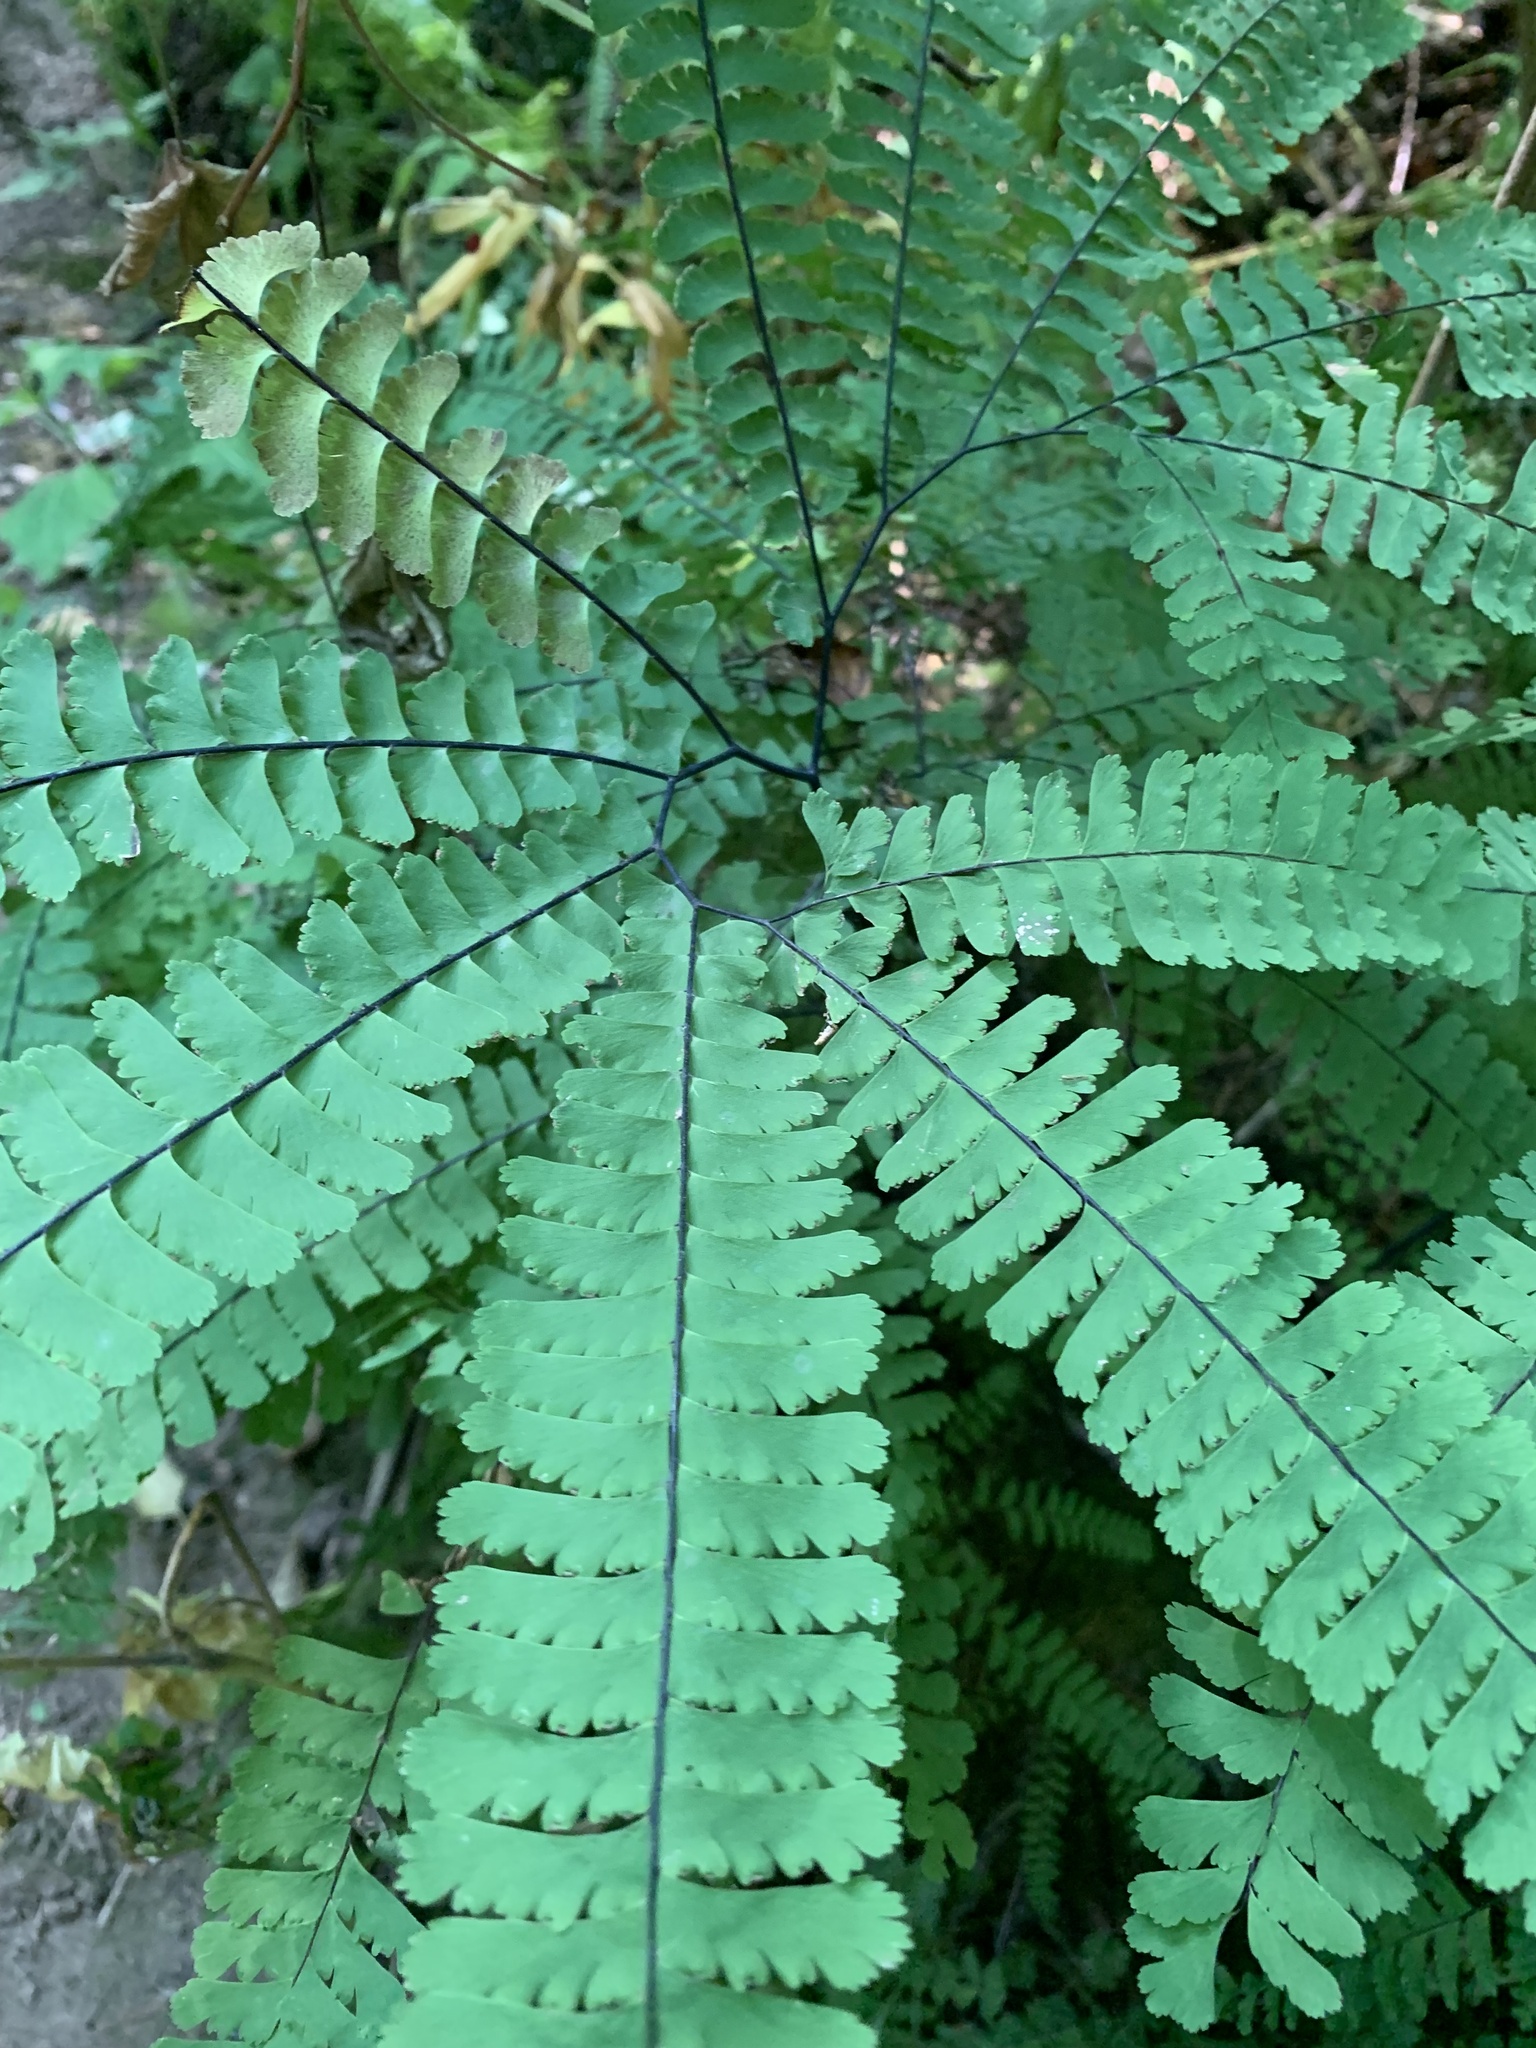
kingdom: Plantae
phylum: Tracheophyta
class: Polypodiopsida
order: Polypodiales
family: Pteridaceae
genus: Adiantum
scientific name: Adiantum aleuticum
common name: Aleutian maidenhair fern
